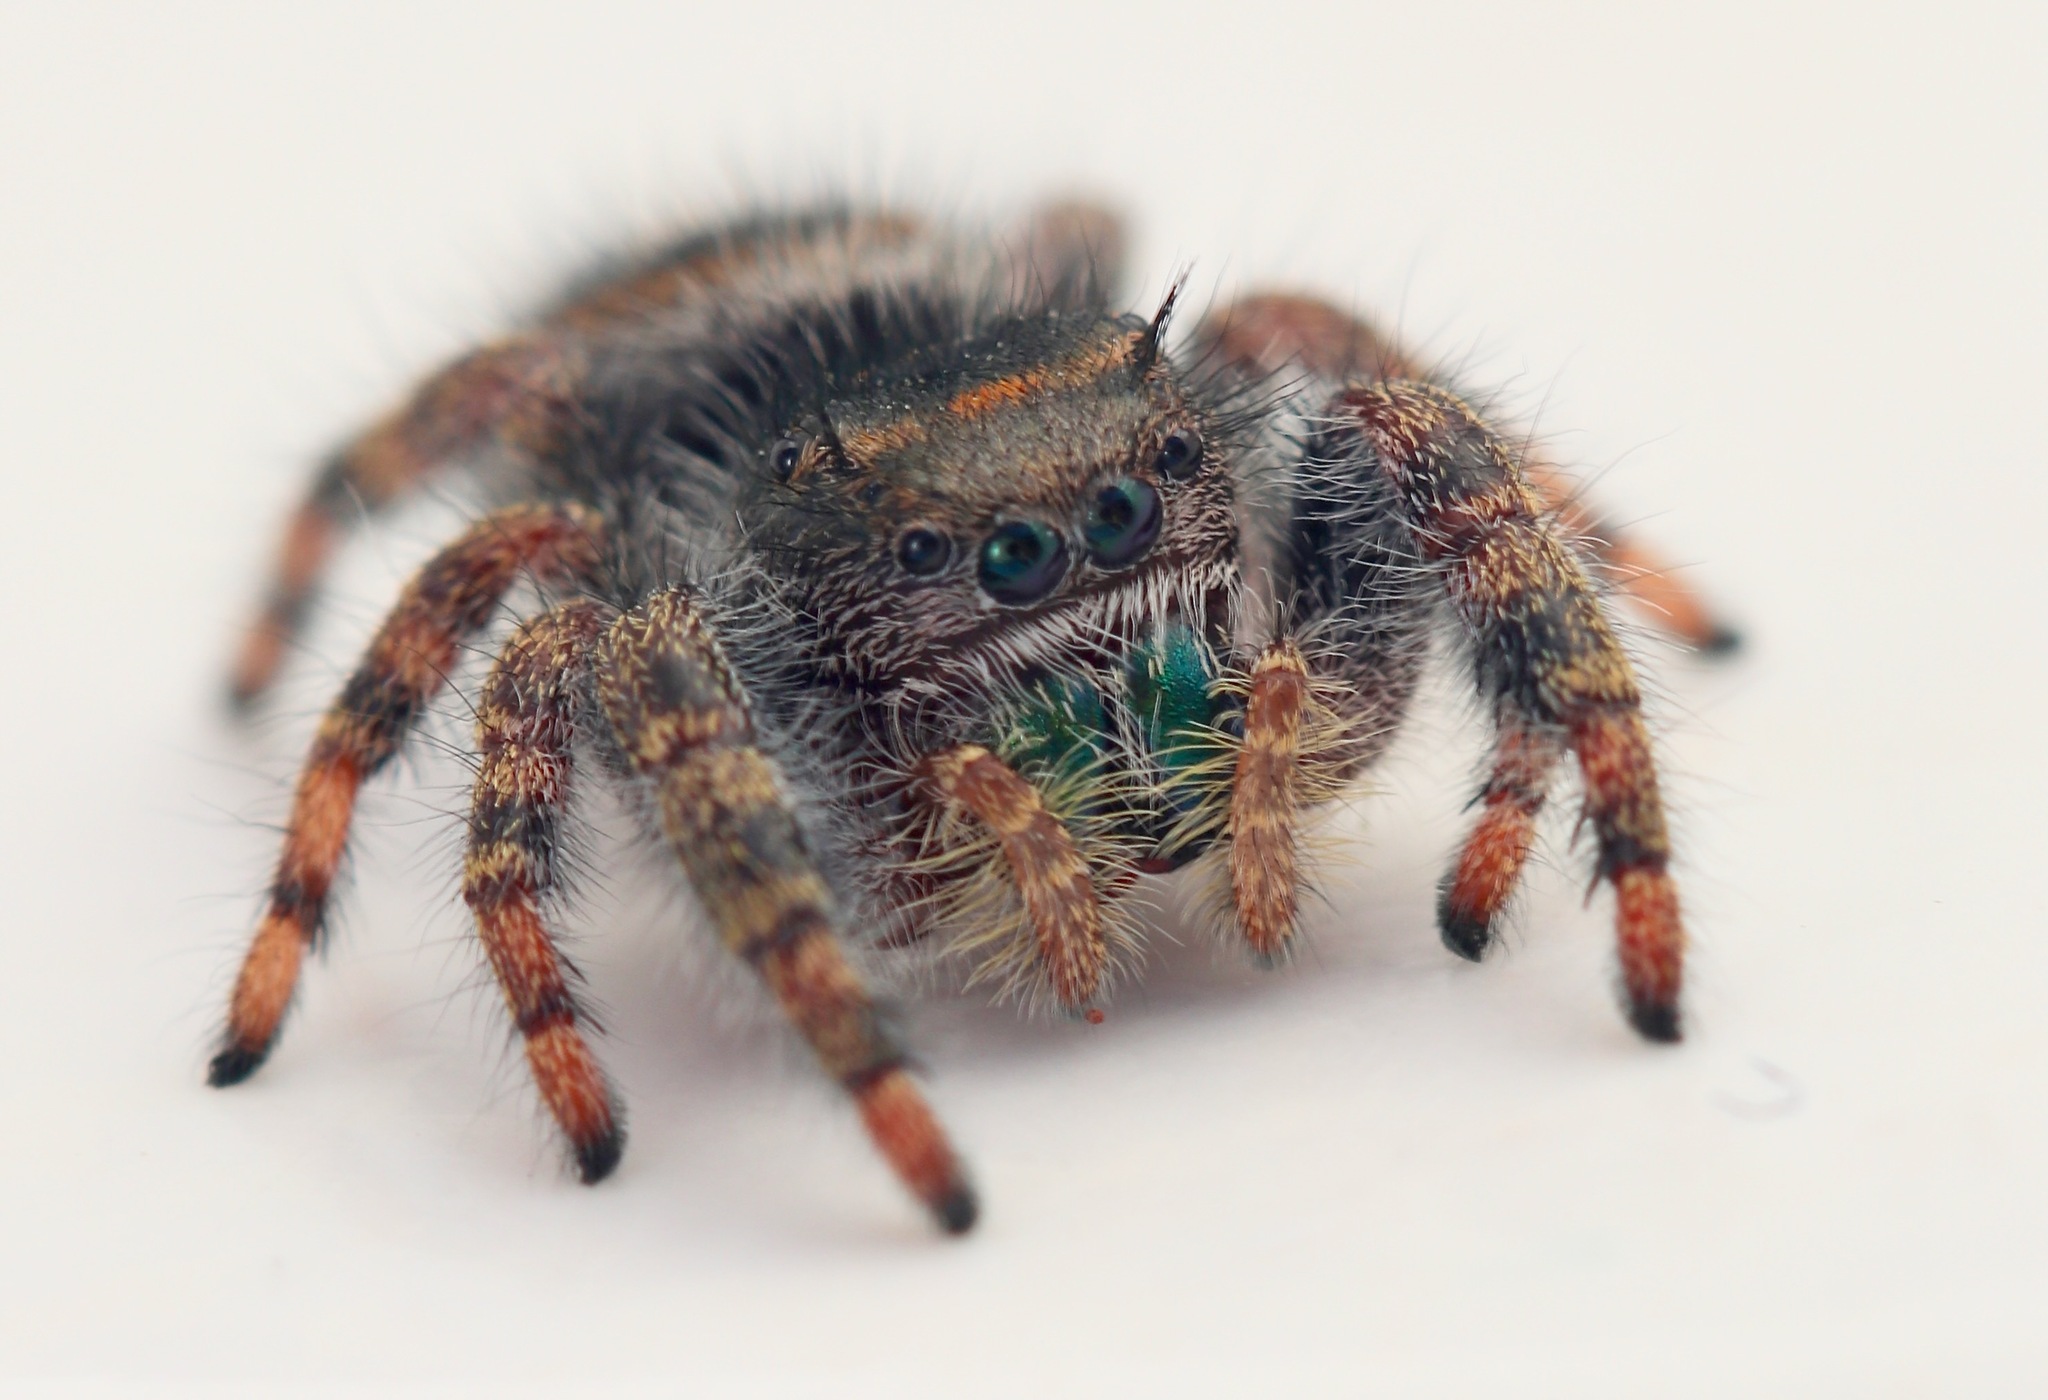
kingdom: Animalia
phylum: Arthropoda
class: Arachnida
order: Araneae
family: Salticidae
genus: Phidippus
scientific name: Phidippus audax
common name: Bold jumper
